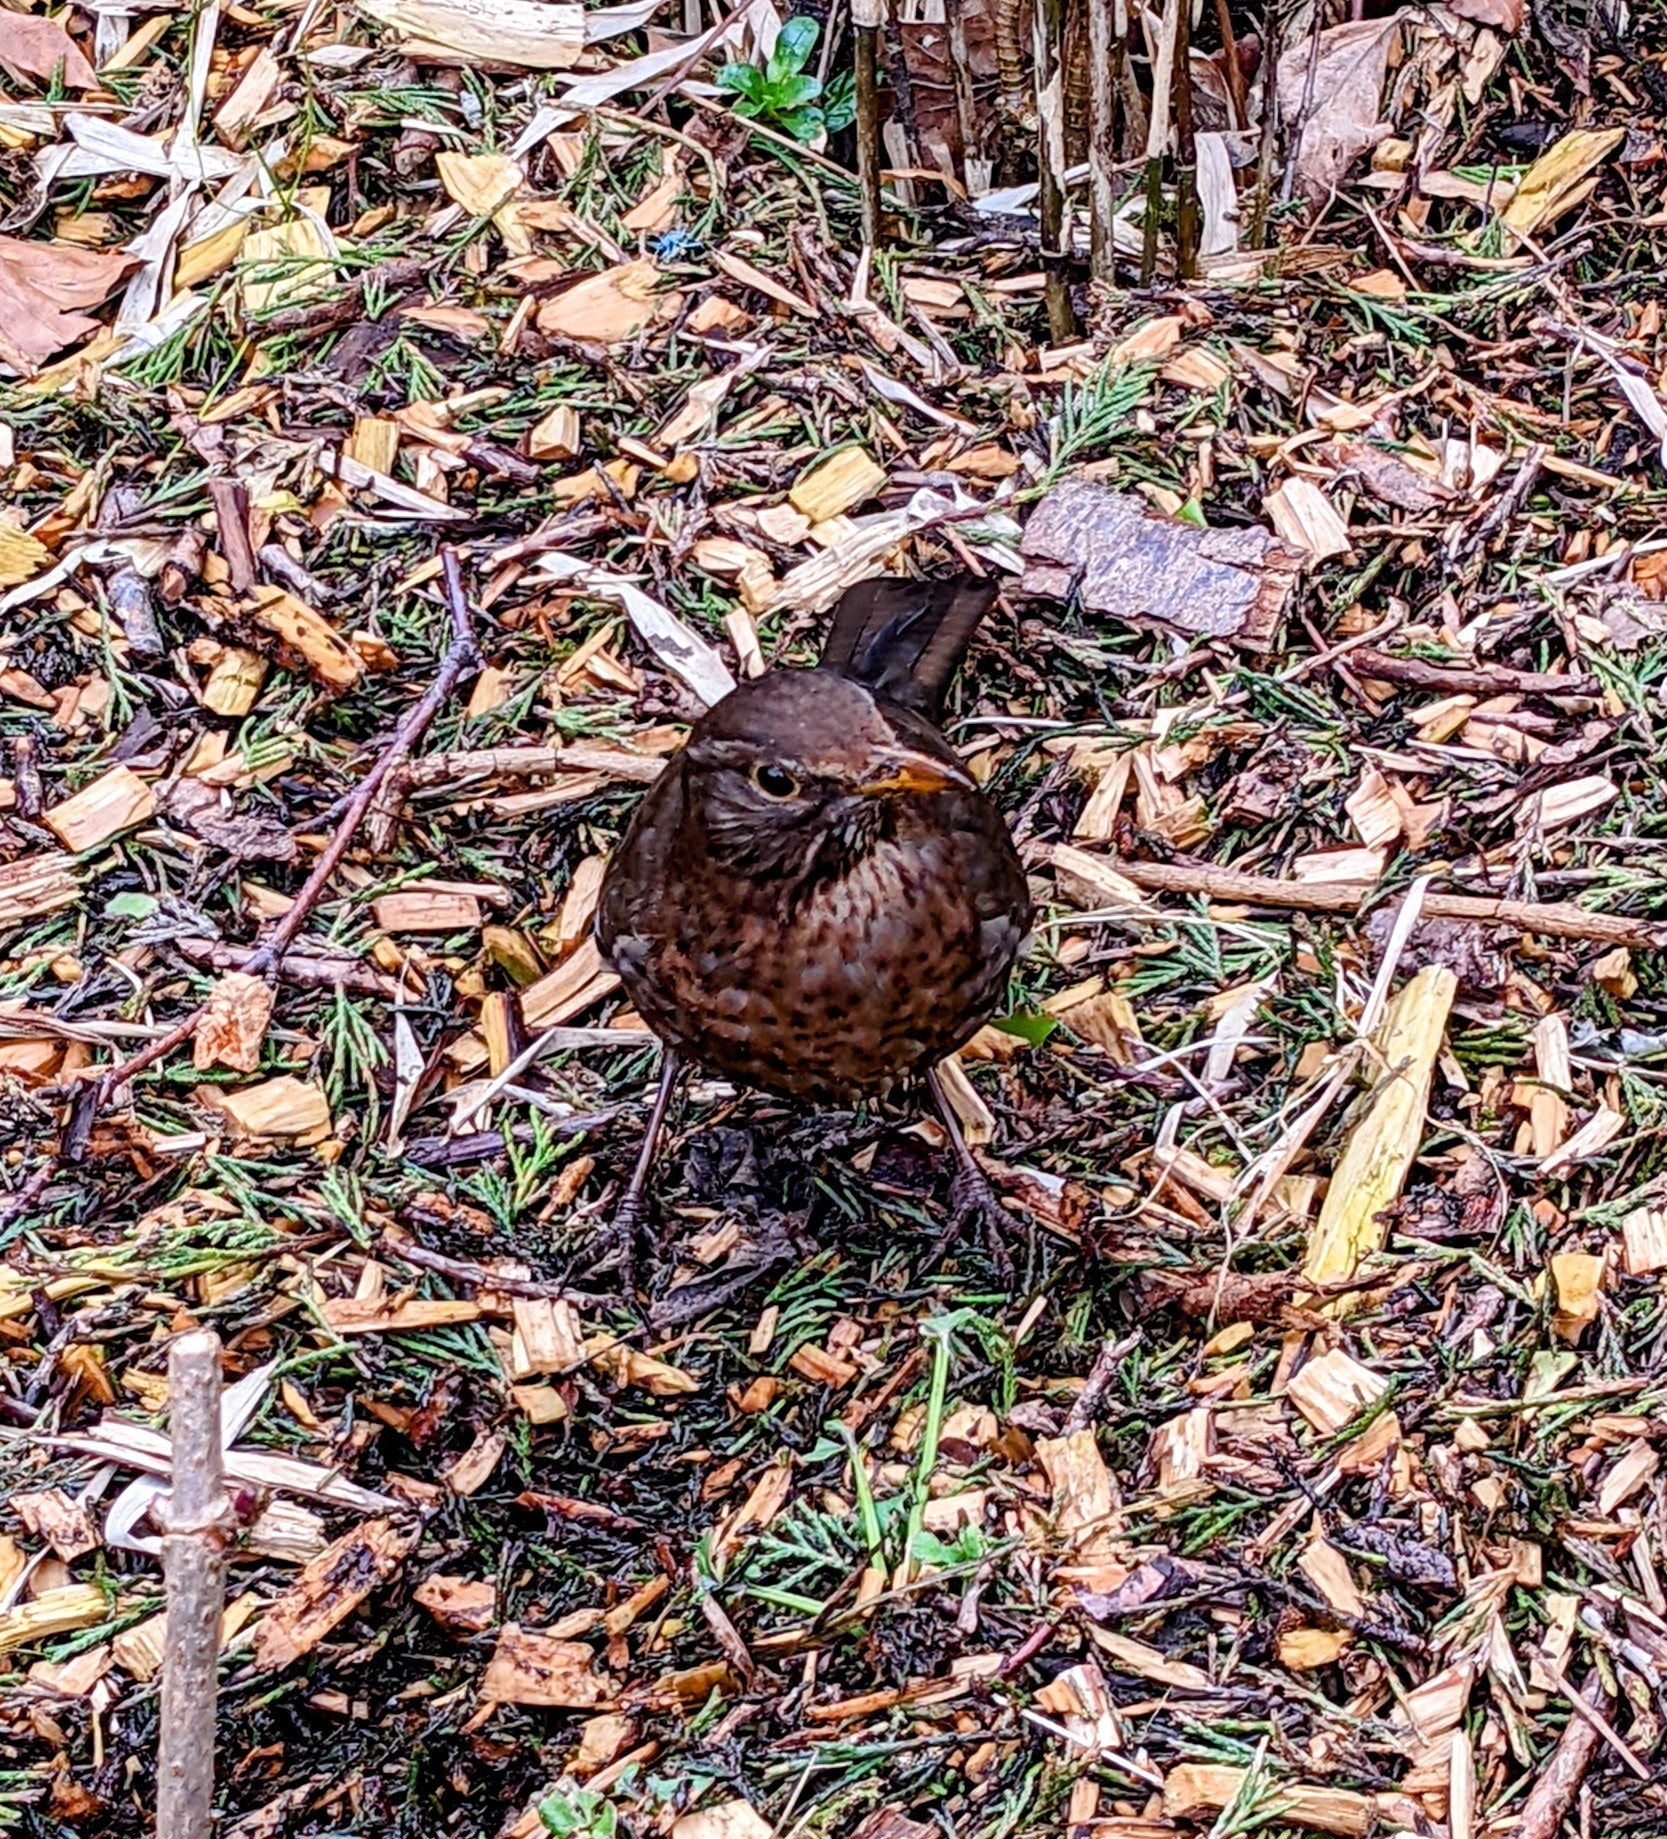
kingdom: Animalia
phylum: Chordata
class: Aves
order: Passeriformes
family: Turdidae
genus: Turdus
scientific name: Turdus merula
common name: Common blackbird
